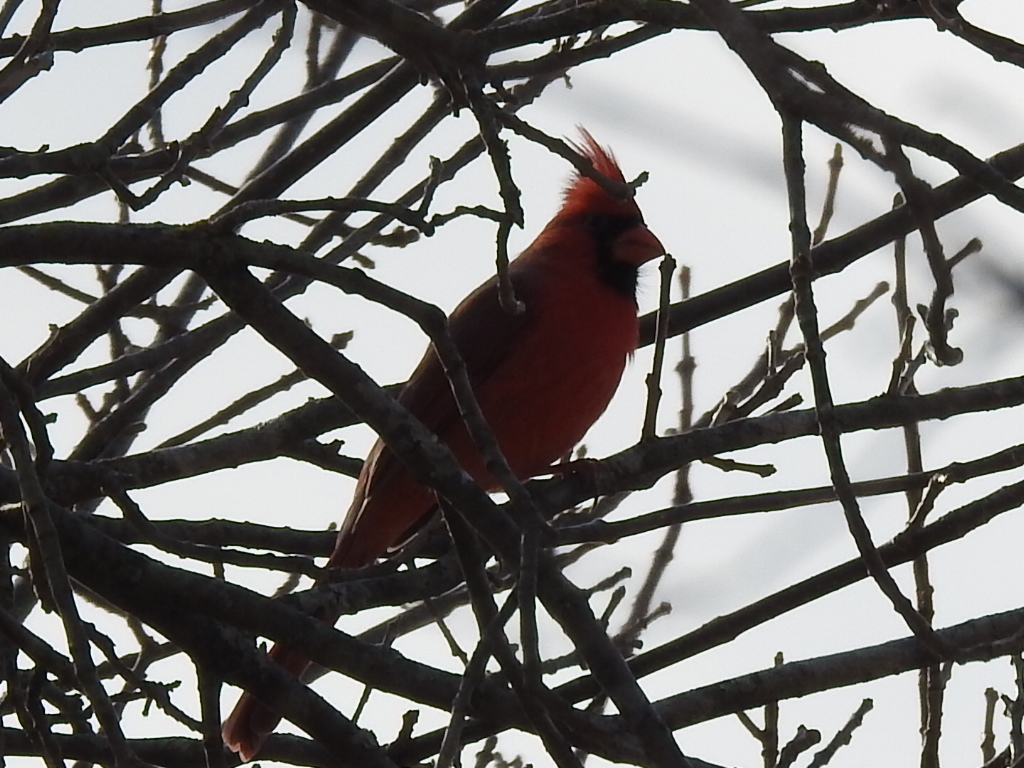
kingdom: Animalia
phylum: Chordata
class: Aves
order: Passeriformes
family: Cardinalidae
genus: Cardinalis
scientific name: Cardinalis cardinalis
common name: Northern cardinal
